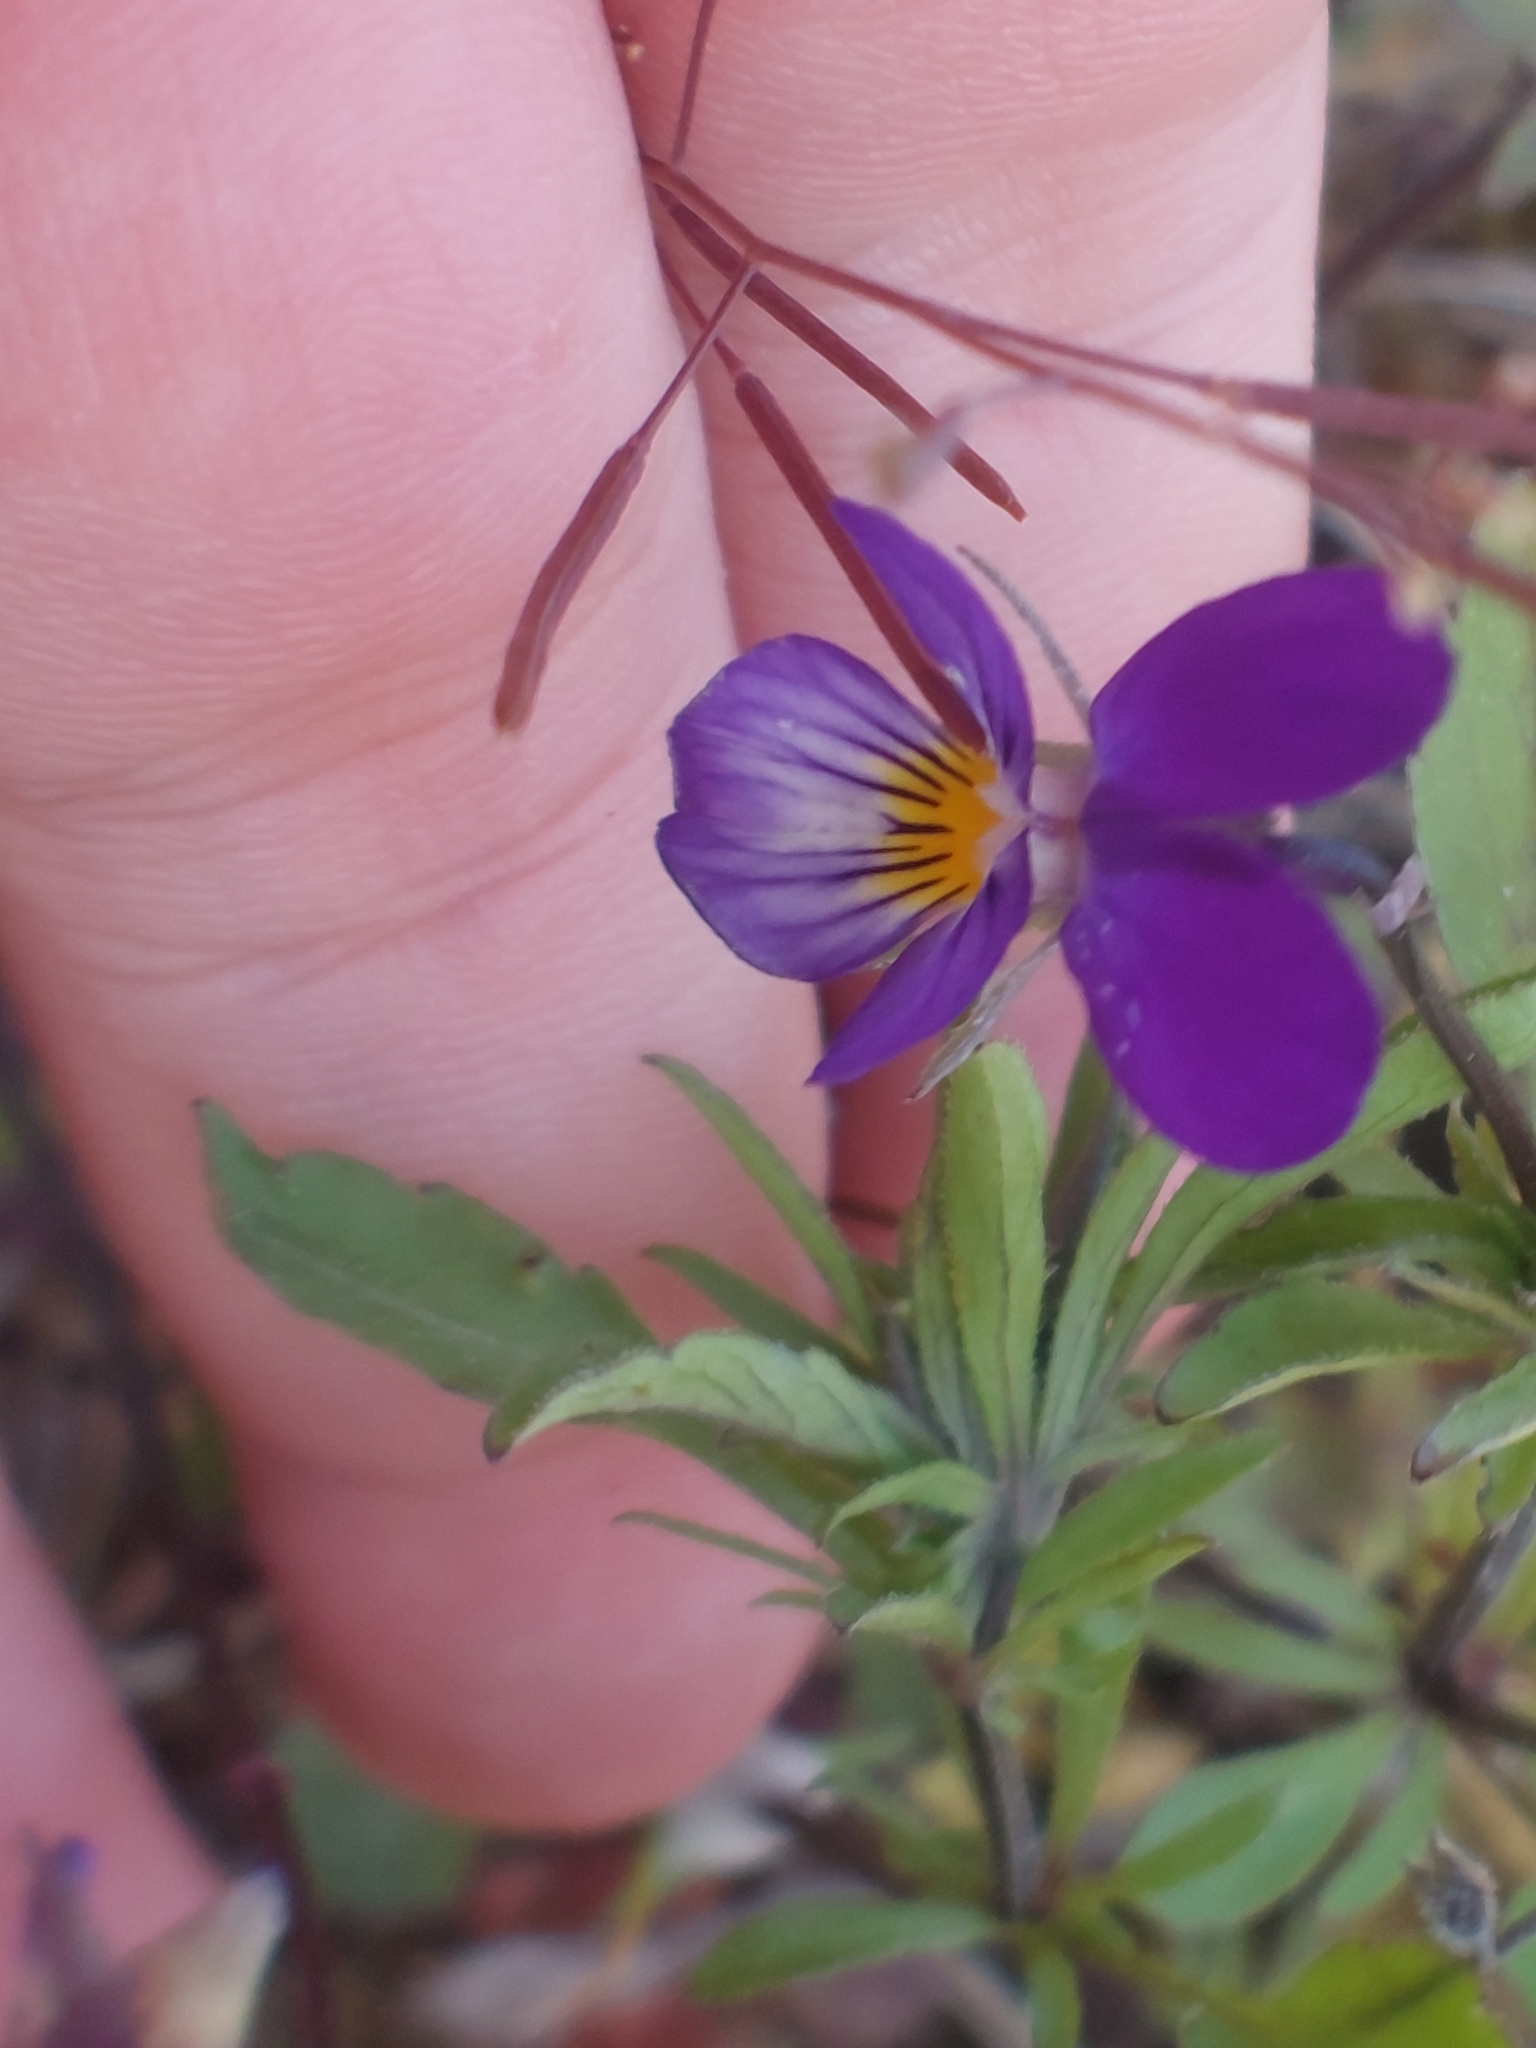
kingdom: Plantae
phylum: Tracheophyta
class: Magnoliopsida
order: Malpighiales
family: Violaceae
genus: Viola
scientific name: Viola tricolor
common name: Pansy
